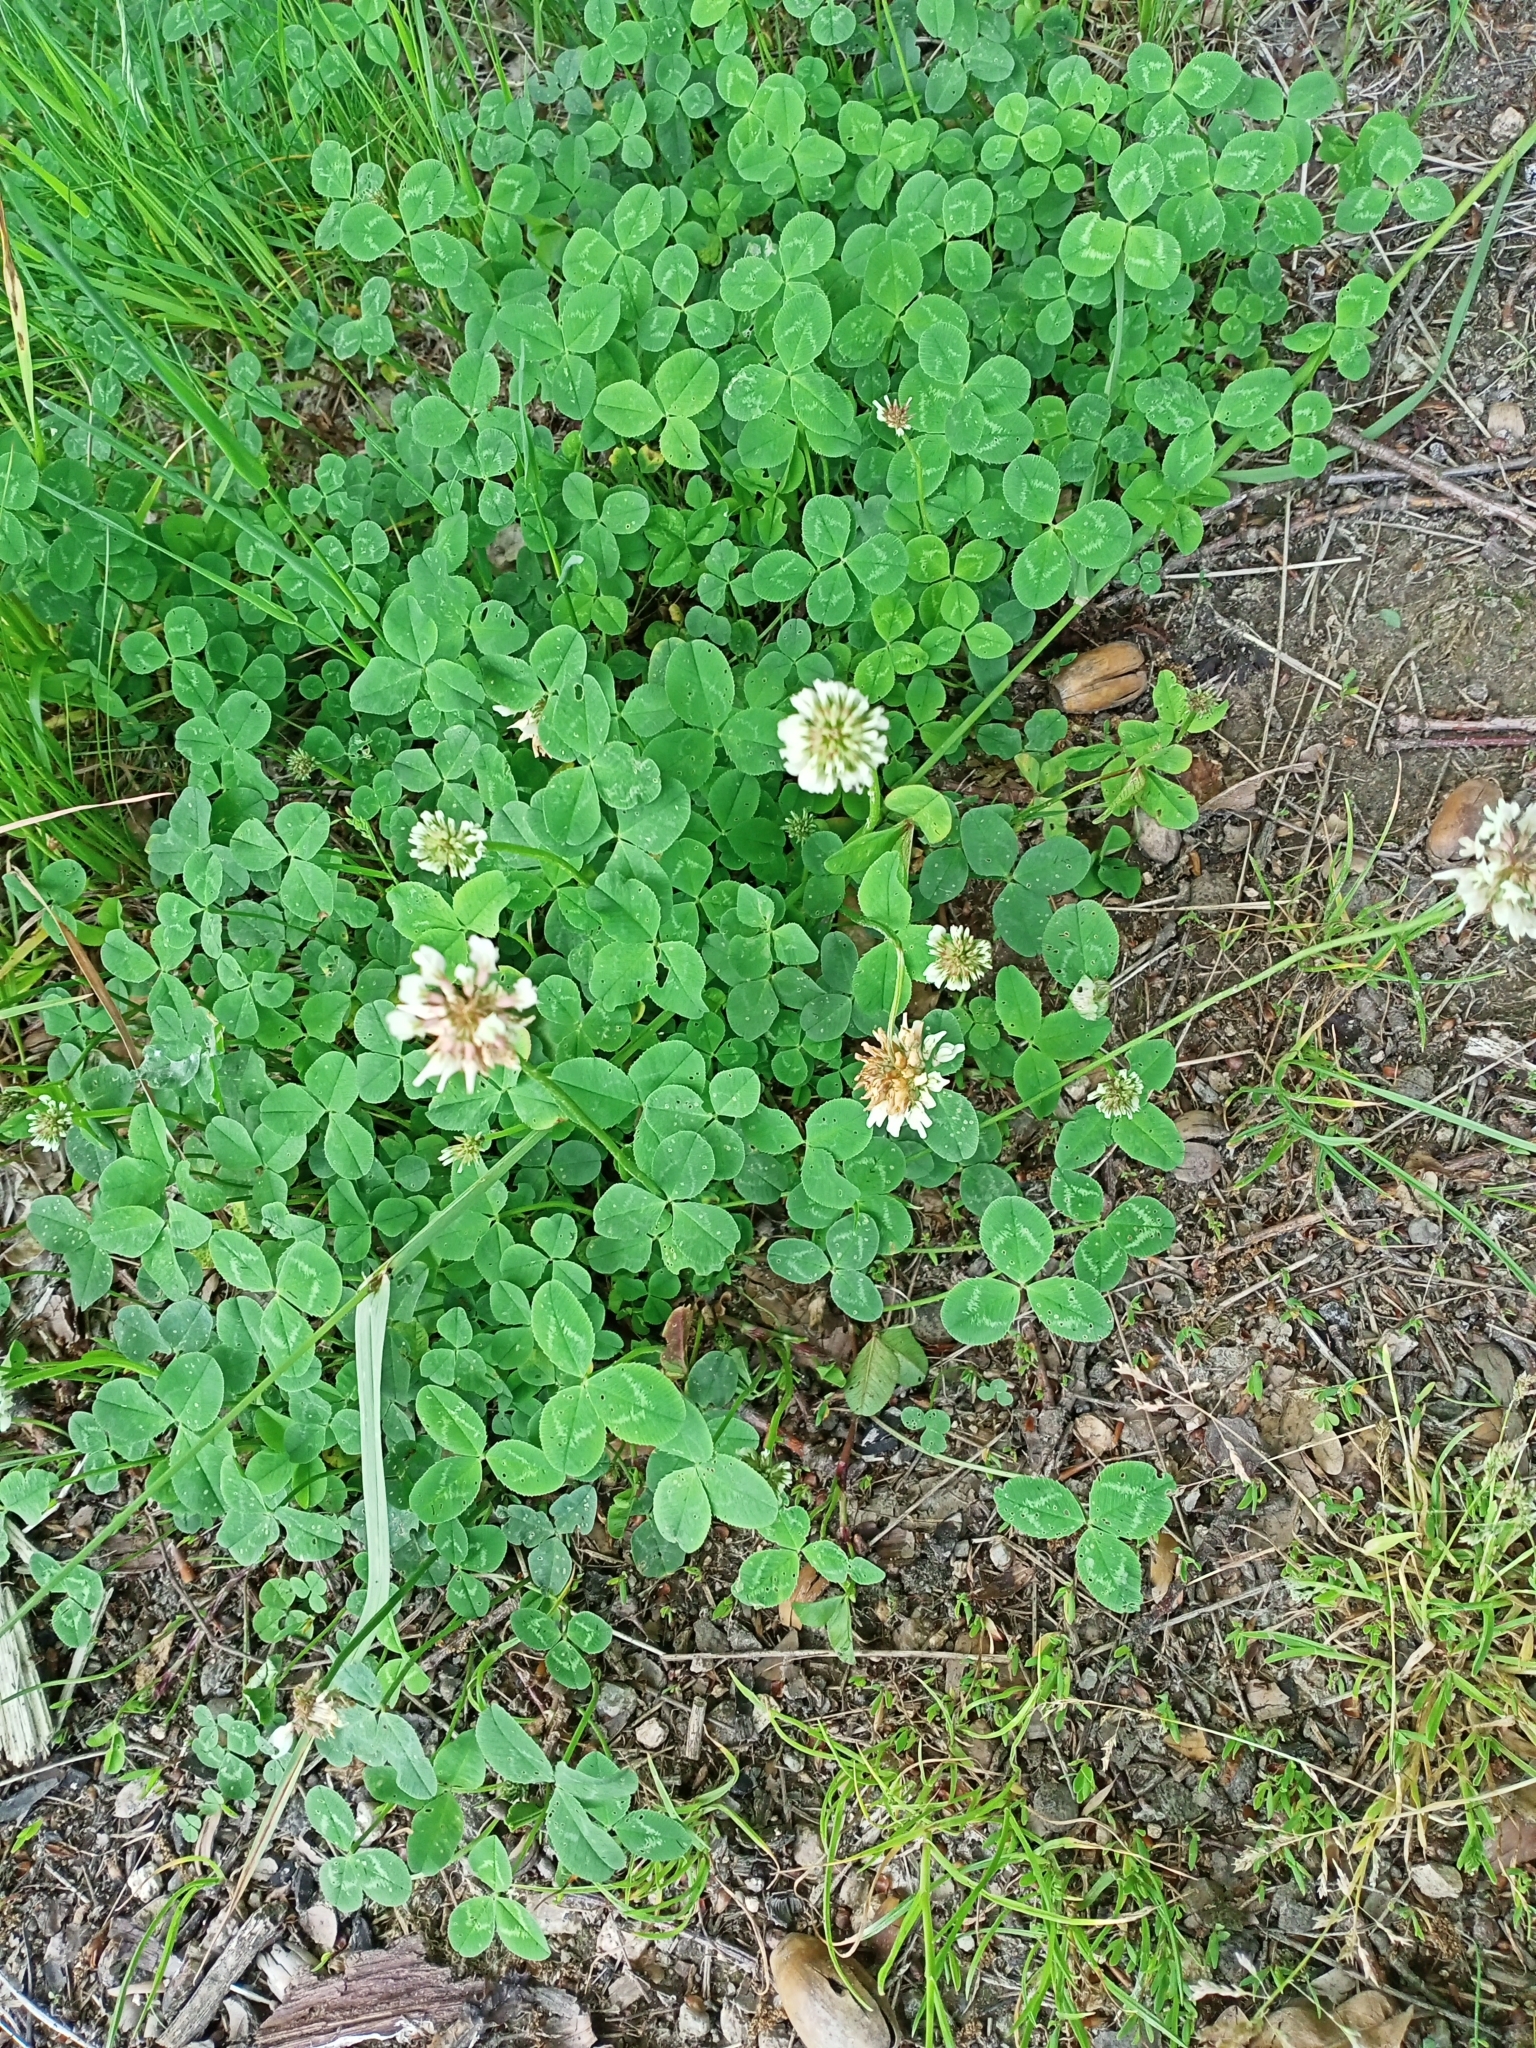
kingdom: Plantae
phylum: Tracheophyta
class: Magnoliopsida
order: Fabales
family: Fabaceae
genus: Trifolium
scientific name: Trifolium repens
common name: White clover
